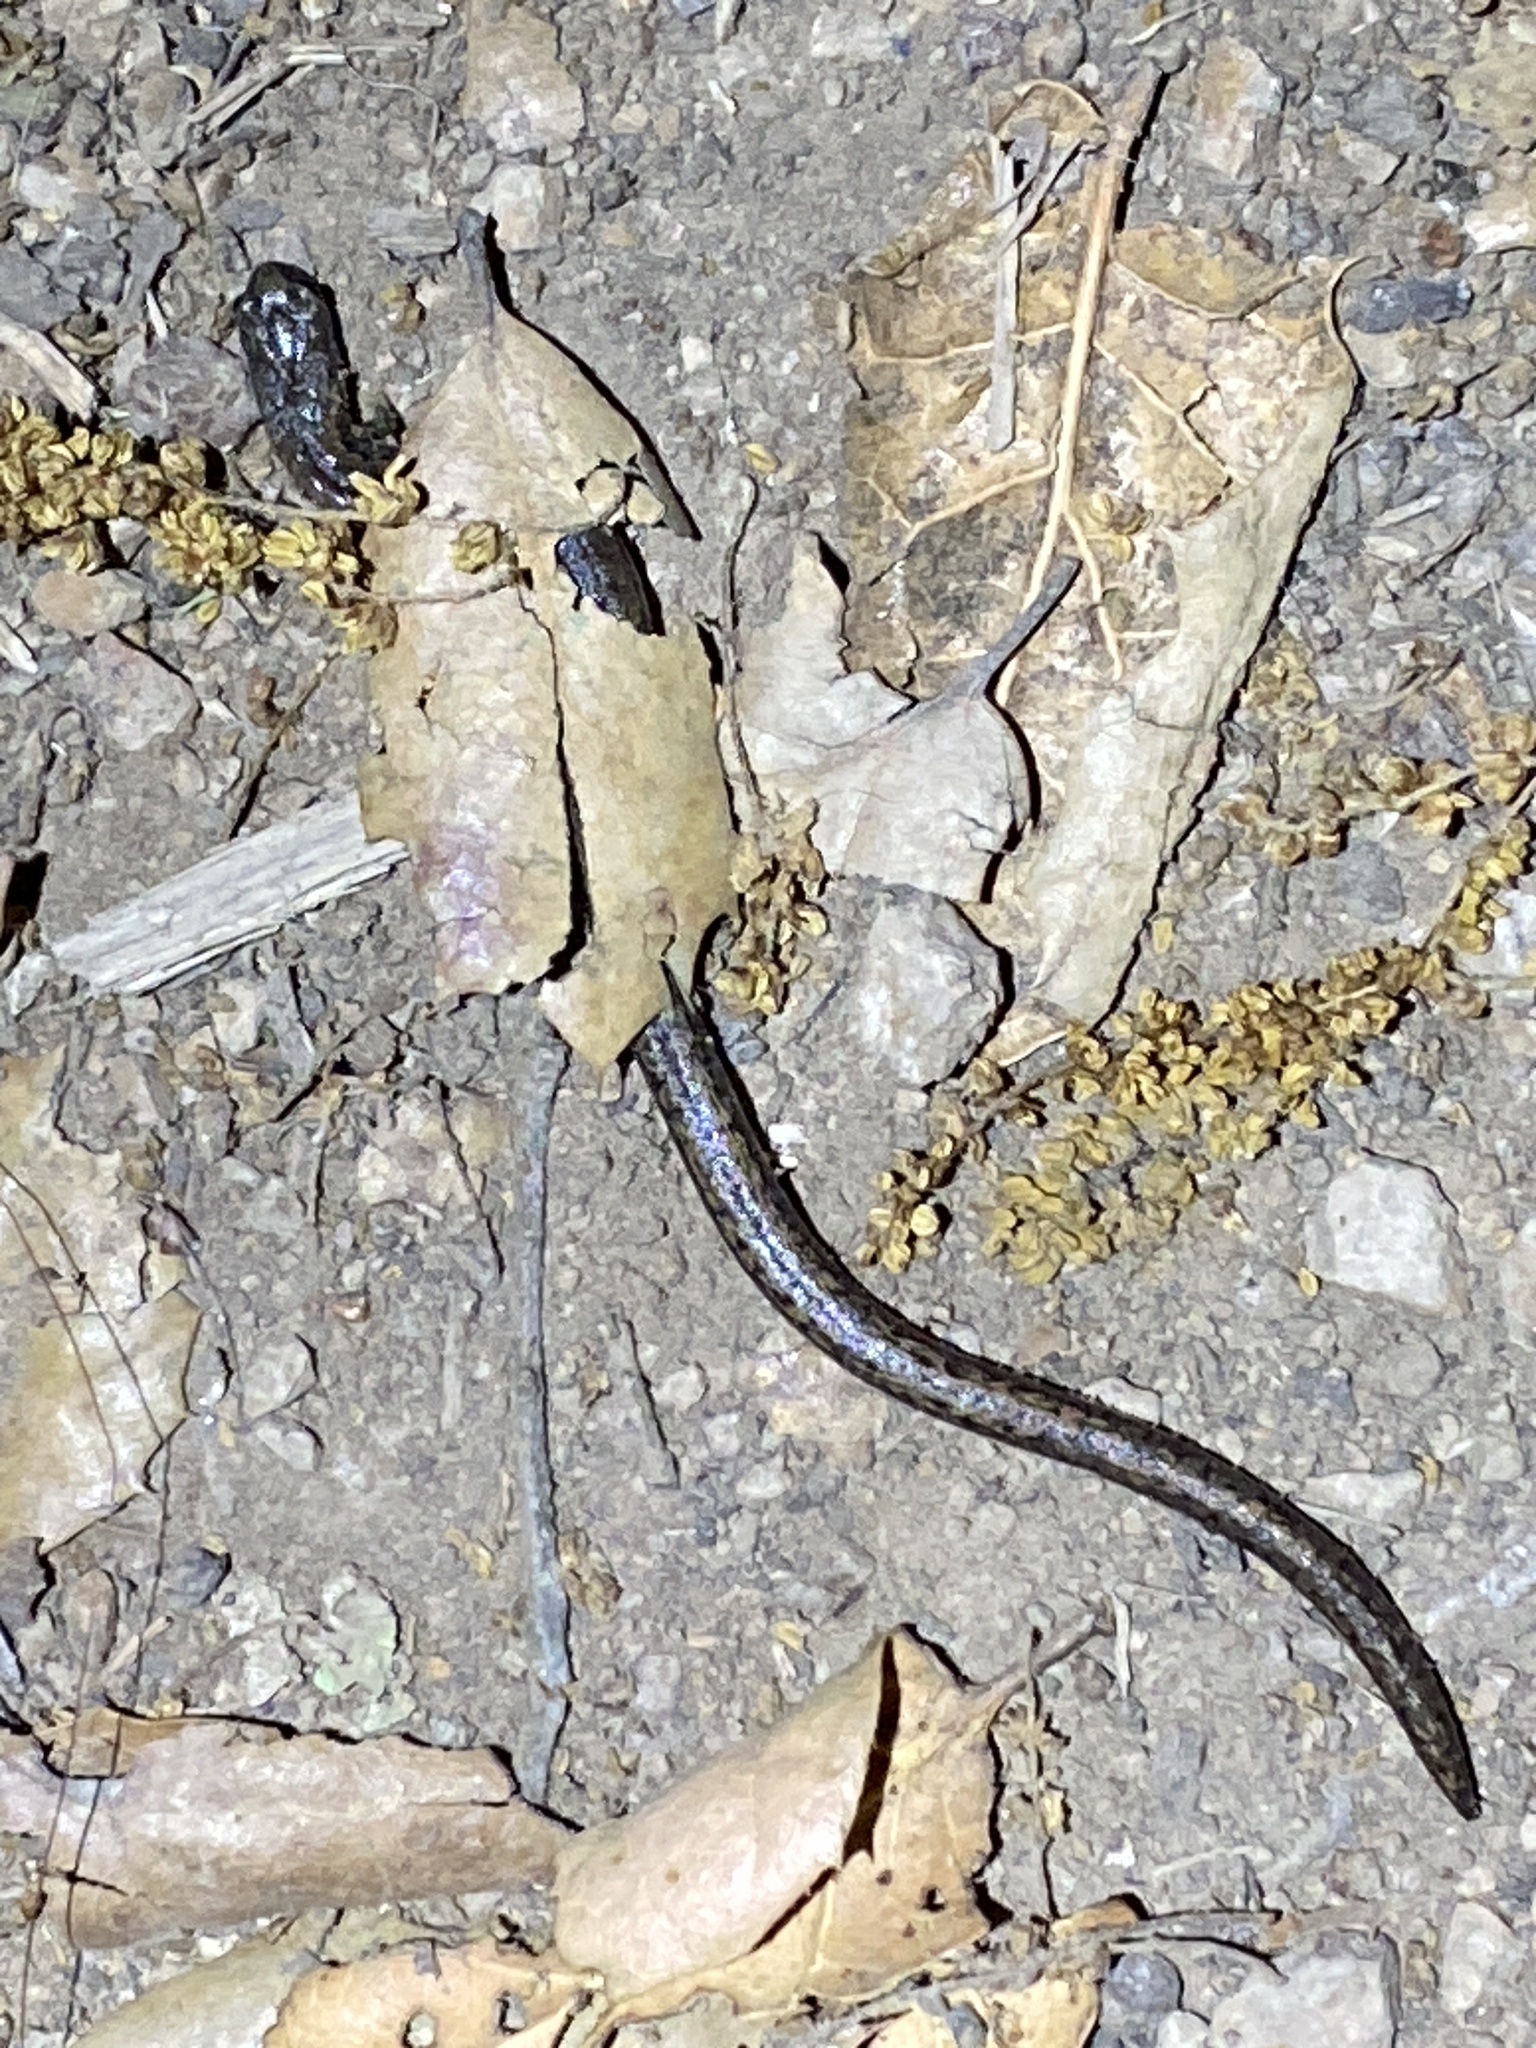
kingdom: Animalia
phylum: Chordata
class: Amphibia
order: Caudata
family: Plethodontidae
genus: Batrachoseps
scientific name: Batrachoseps attenuatus
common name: California slender salamander
